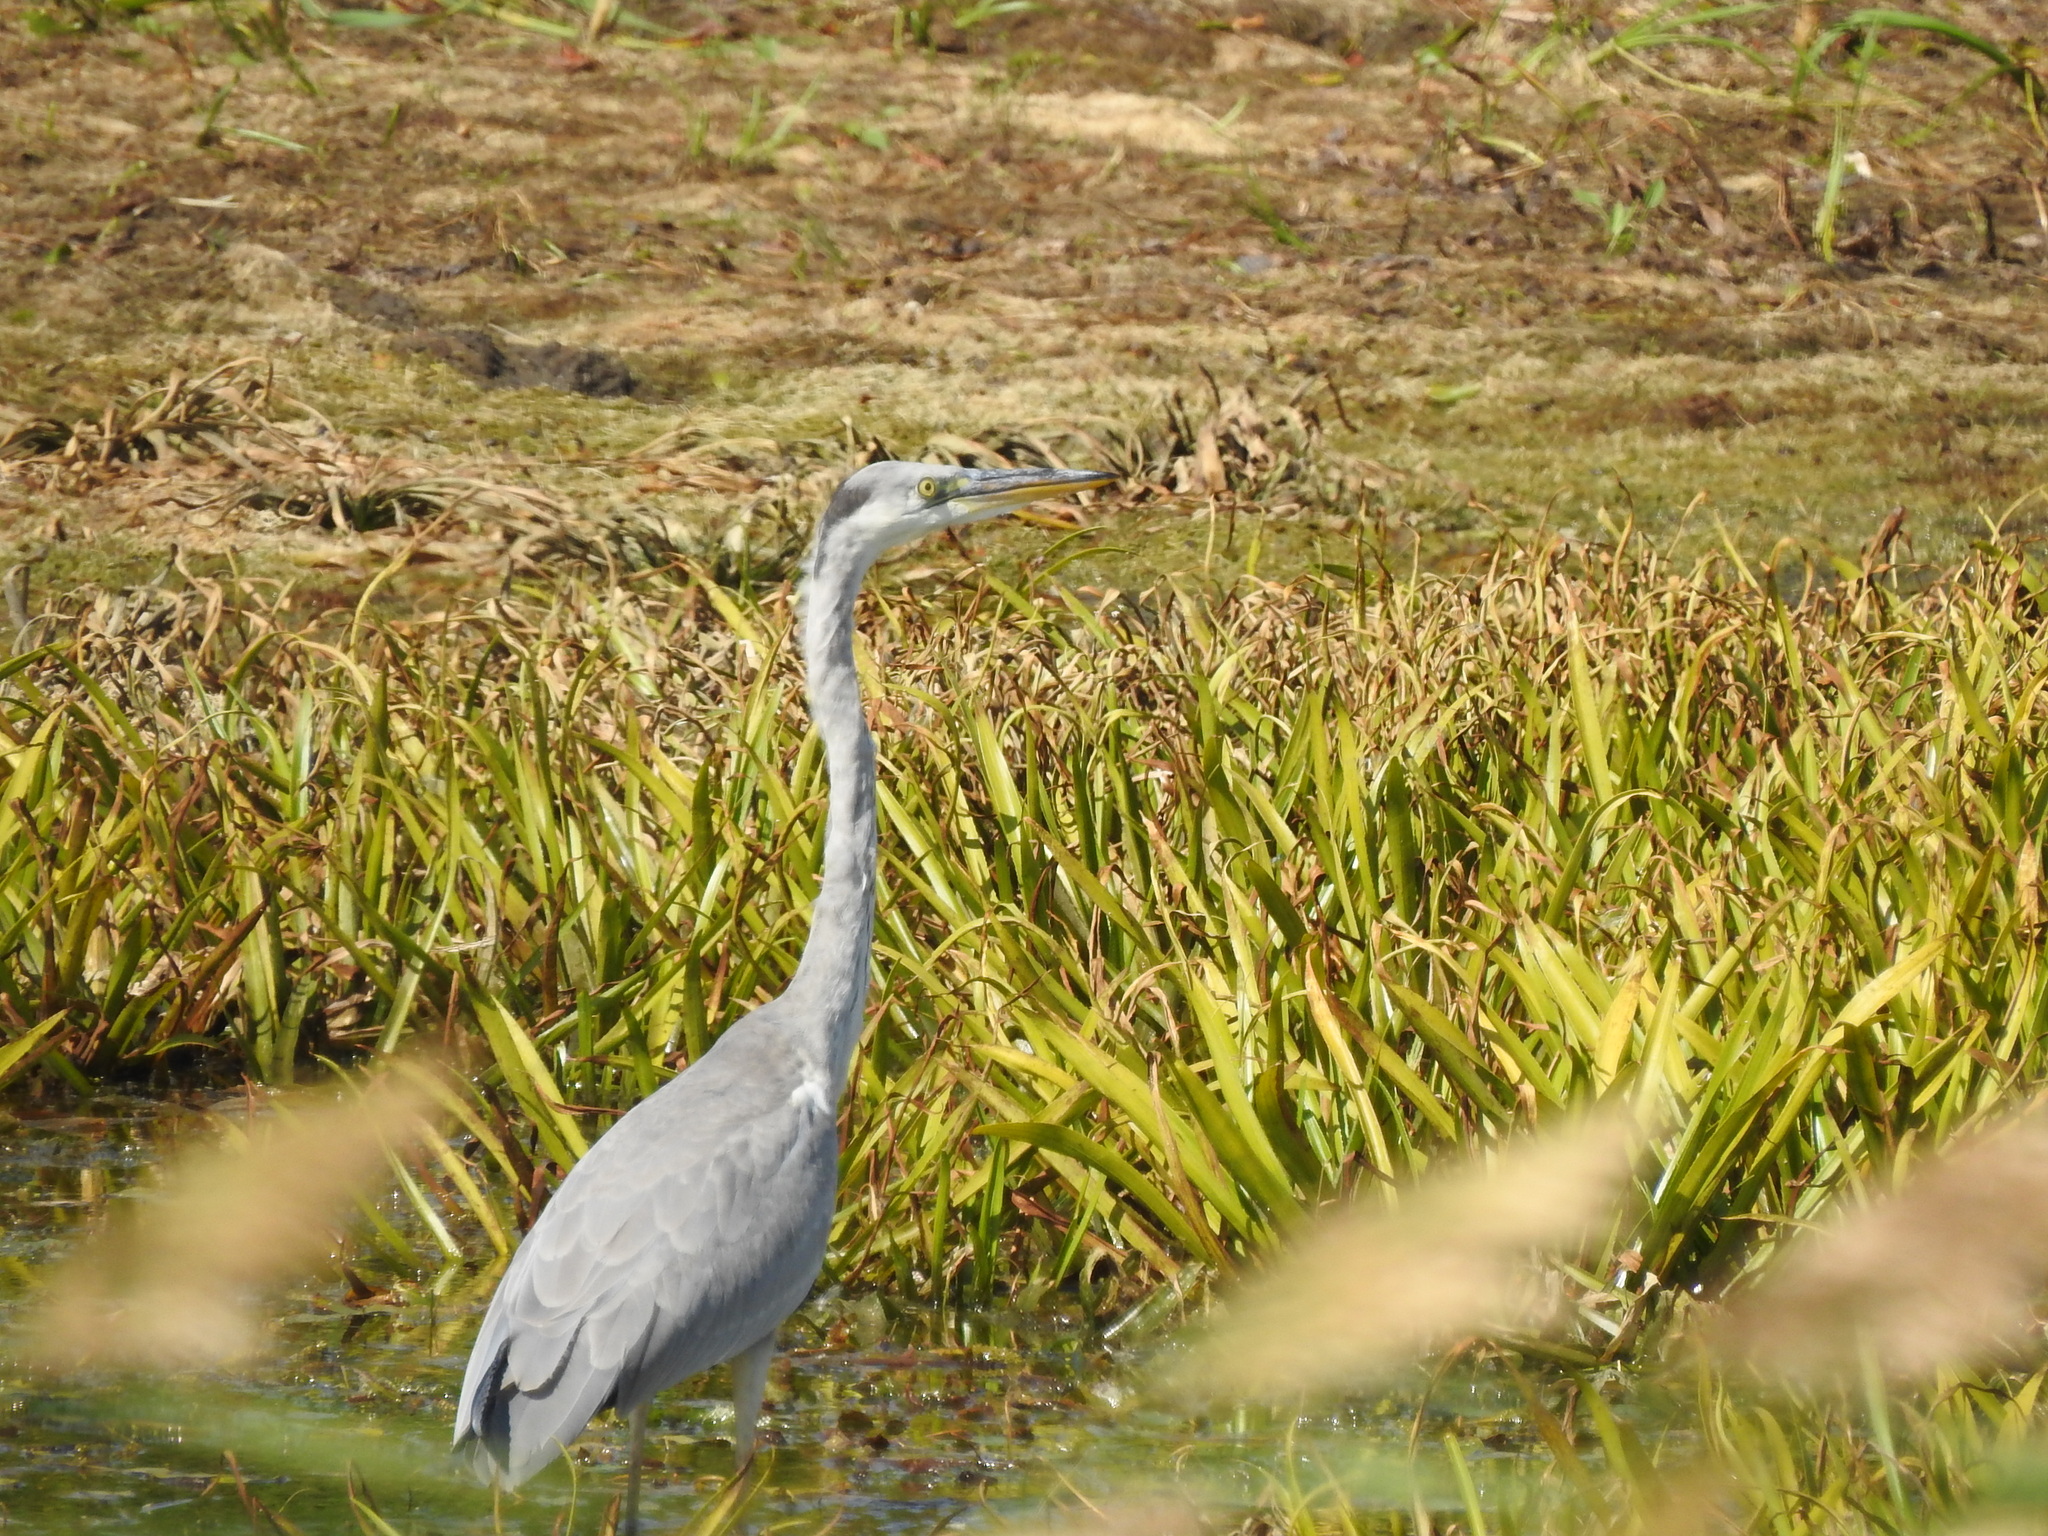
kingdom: Animalia
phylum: Chordata
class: Aves
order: Pelecaniformes
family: Ardeidae
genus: Ardea
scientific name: Ardea cinerea
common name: Grey heron
